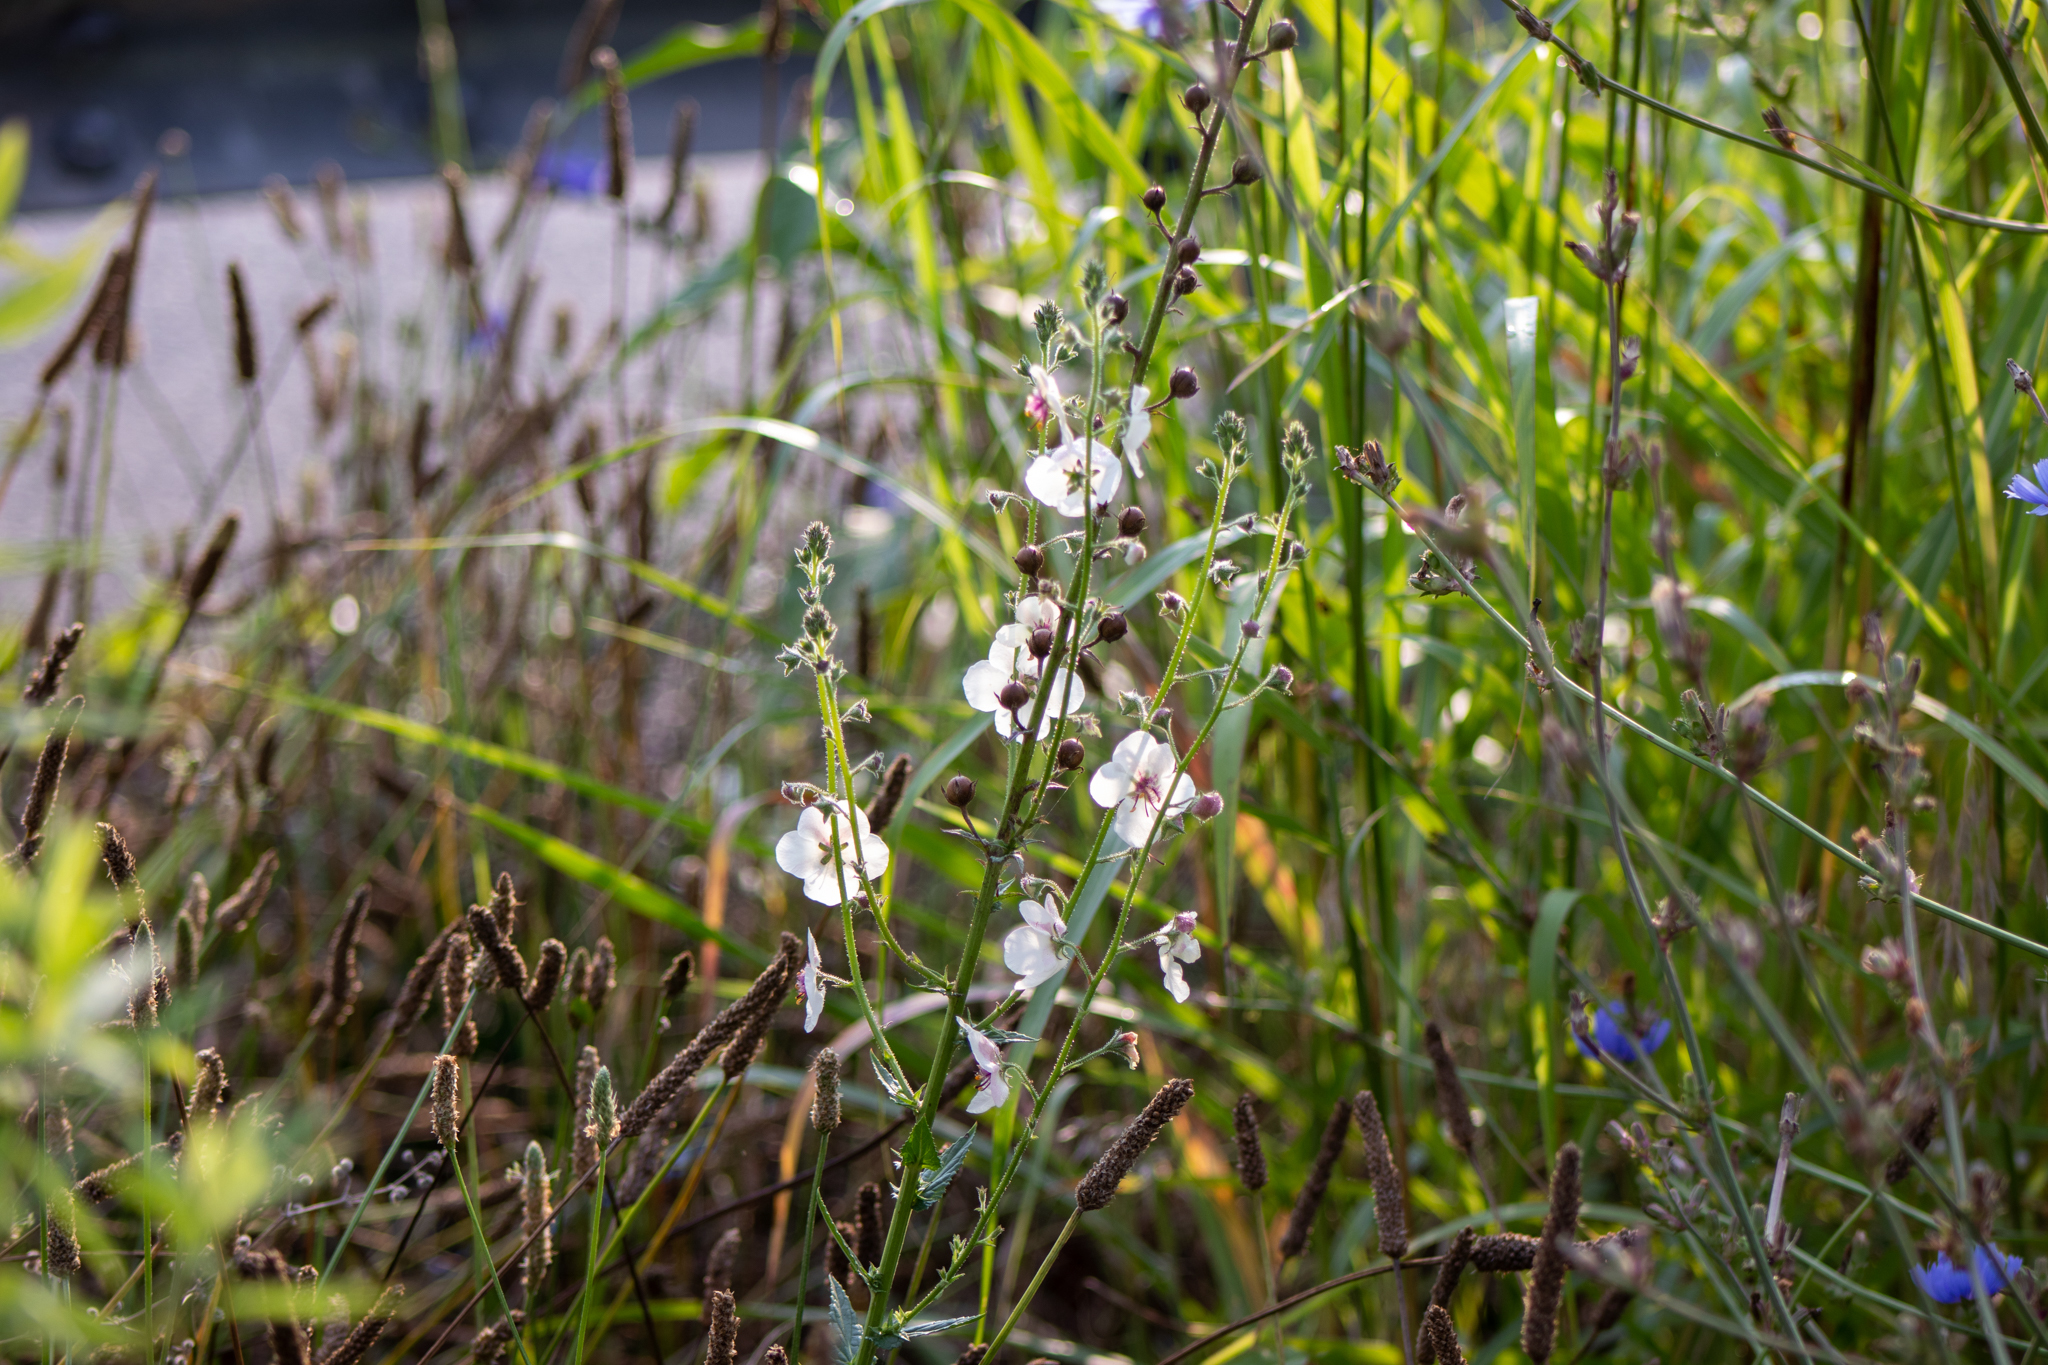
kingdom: Plantae
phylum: Tracheophyta
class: Magnoliopsida
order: Lamiales
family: Scrophulariaceae
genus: Verbascum
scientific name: Verbascum blattaria
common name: Moth mullein
